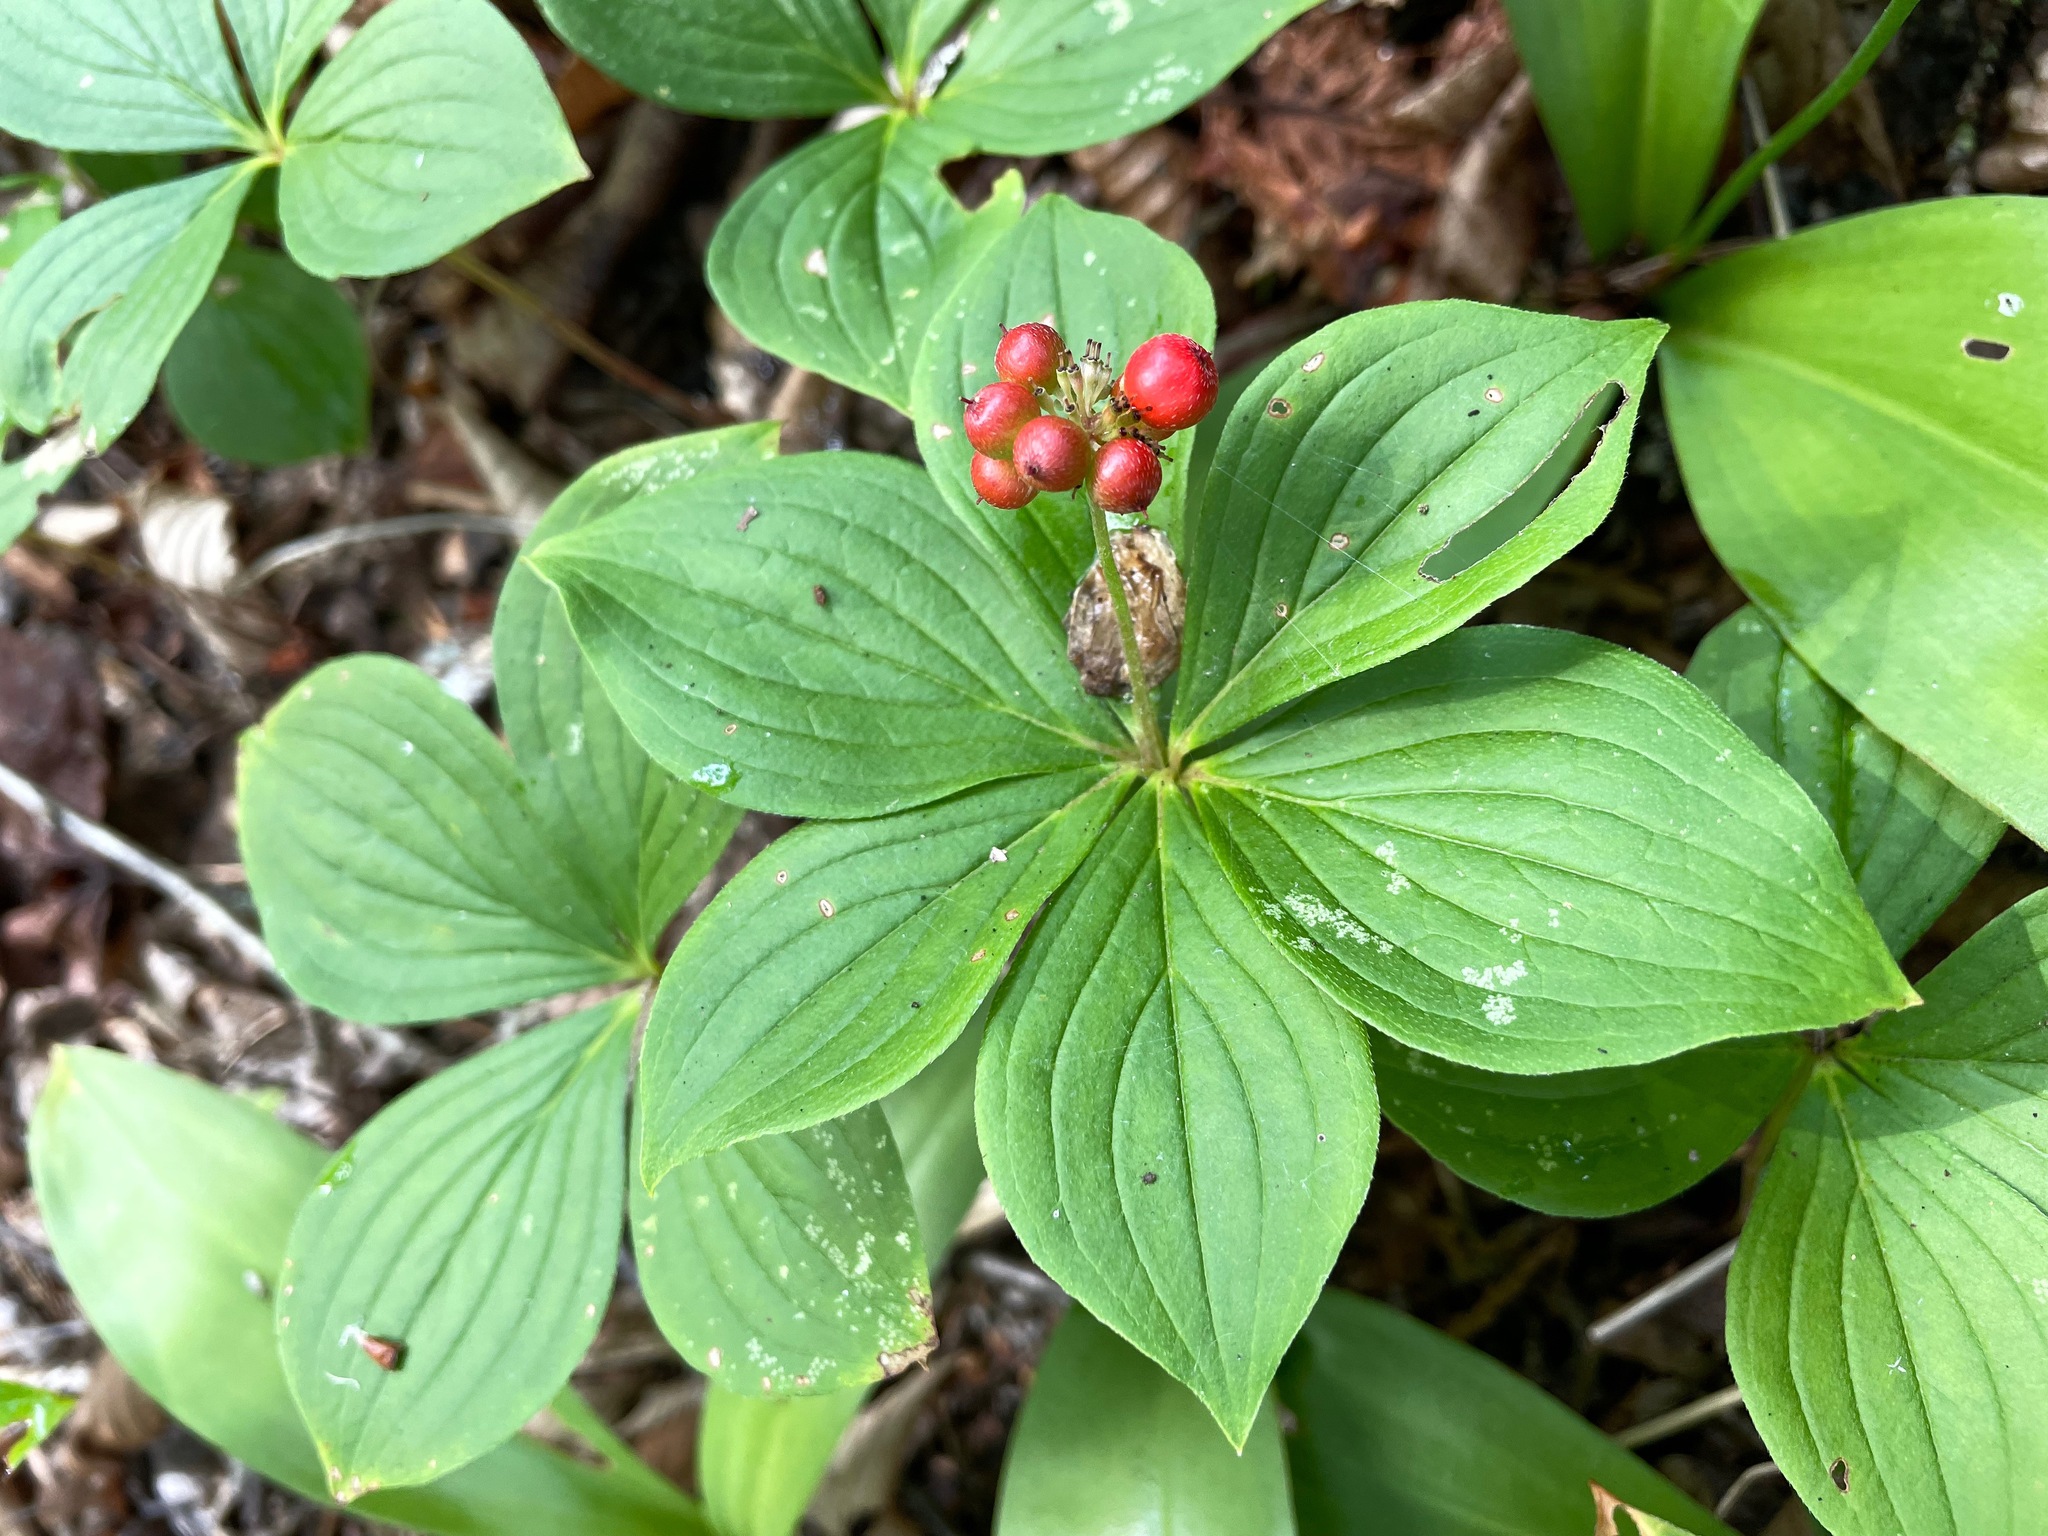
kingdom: Plantae
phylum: Tracheophyta
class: Magnoliopsida
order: Cornales
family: Cornaceae
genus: Cornus
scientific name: Cornus canadensis
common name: Creeping dogwood
